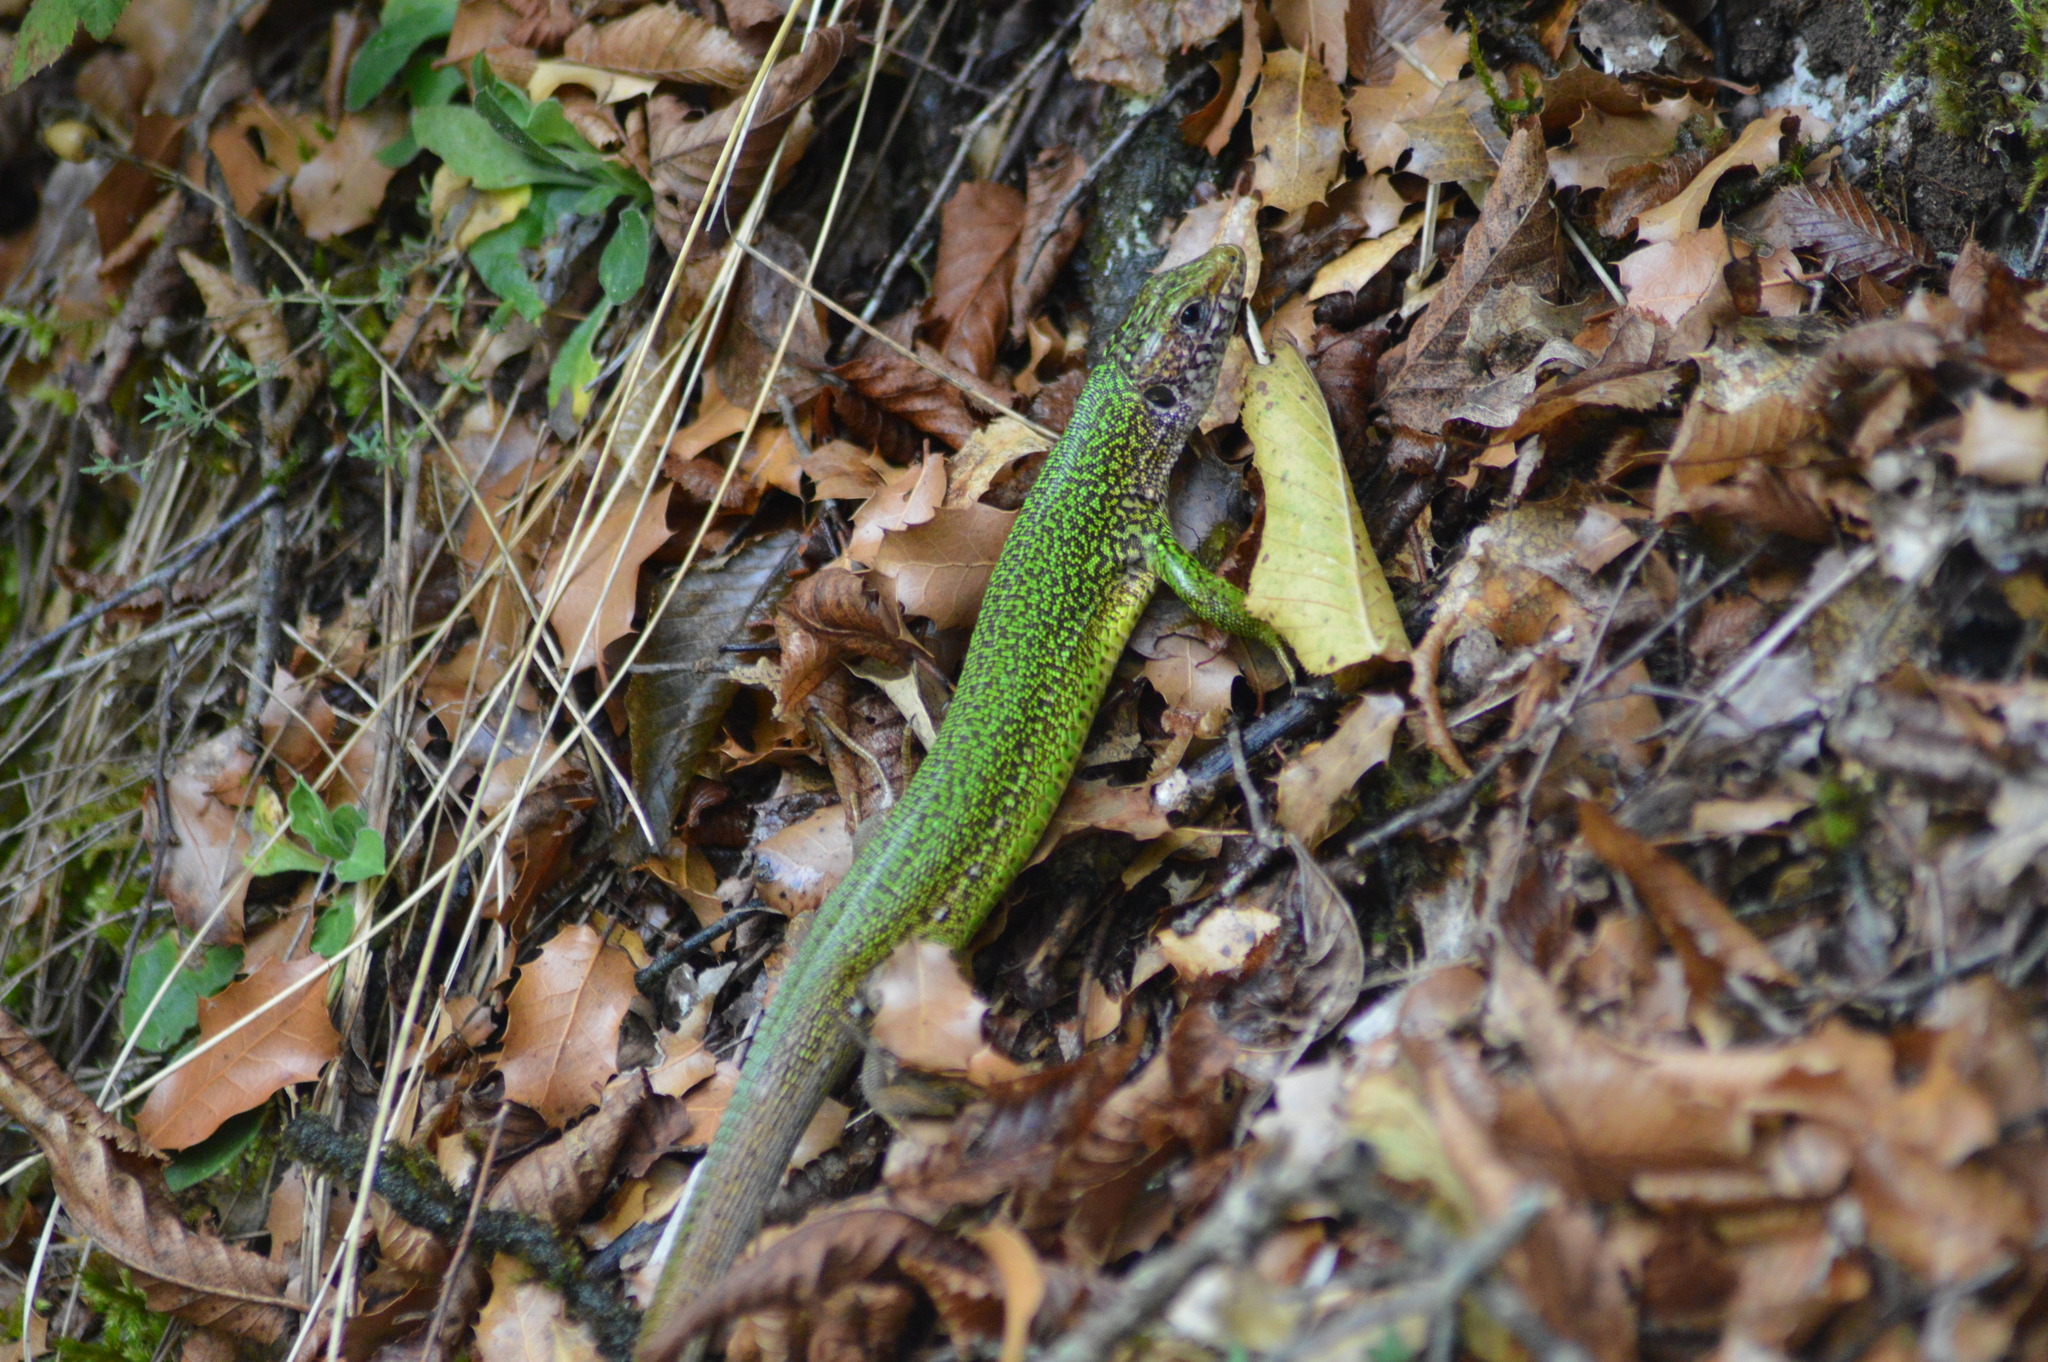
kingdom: Animalia
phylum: Chordata
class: Squamata
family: Lacertidae
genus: Lacerta
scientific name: Lacerta viridis
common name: European green lizard
